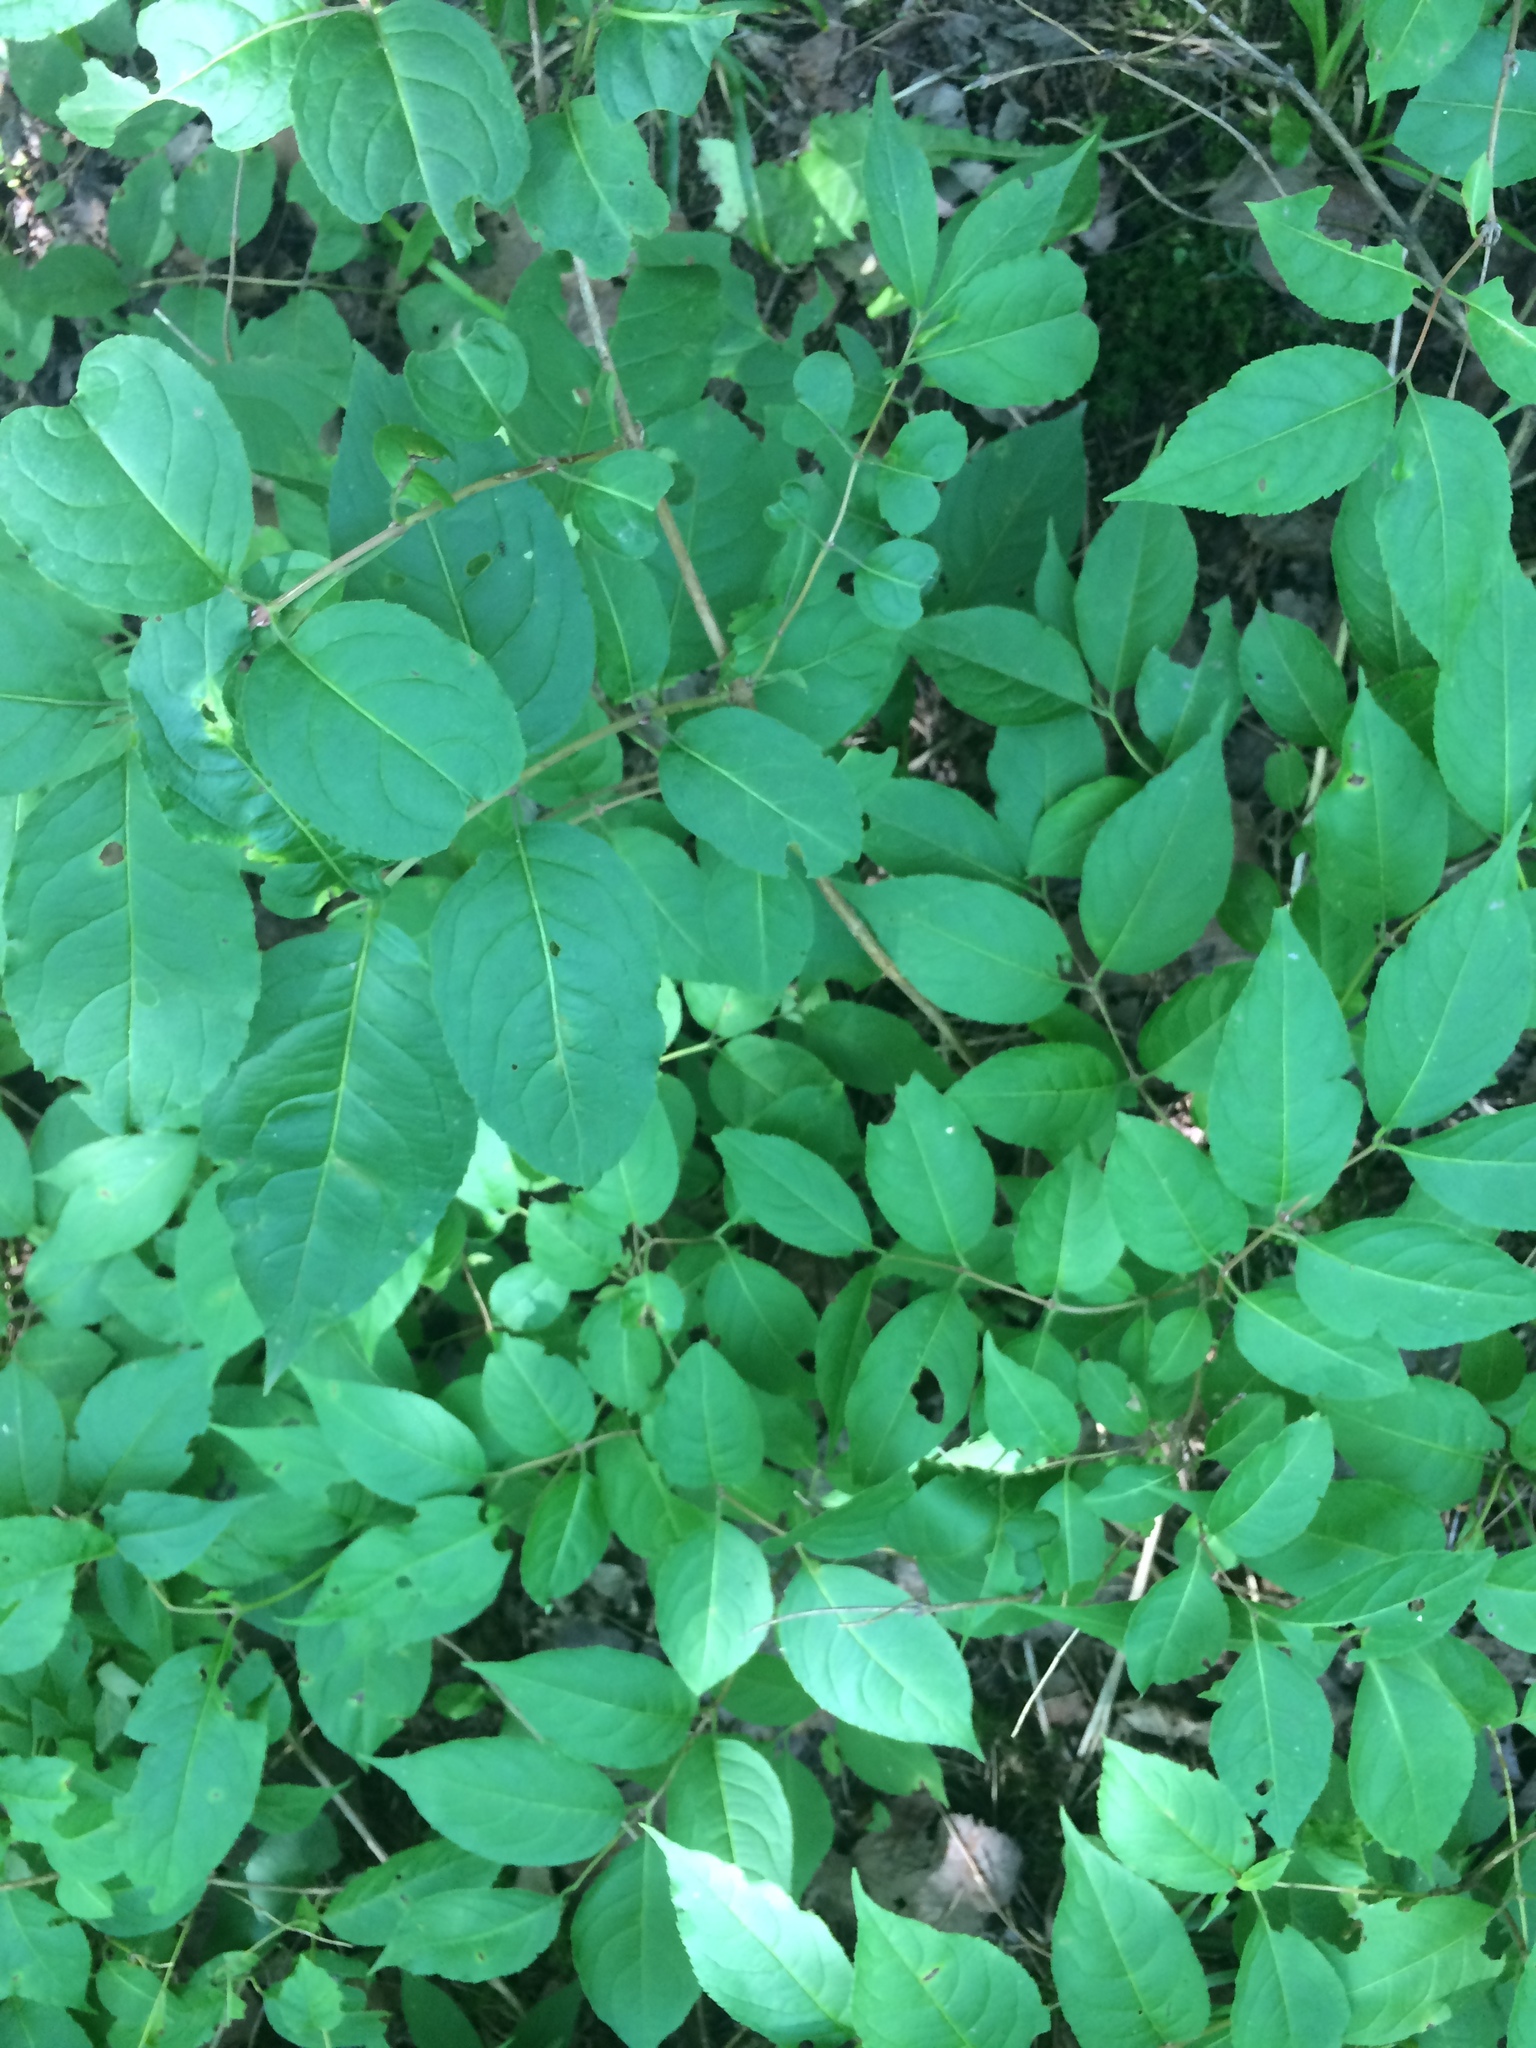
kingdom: Plantae
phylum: Tracheophyta
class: Magnoliopsida
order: Dipsacales
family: Caprifoliaceae
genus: Diervilla
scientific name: Diervilla lonicera
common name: Bush-honeysuckle
